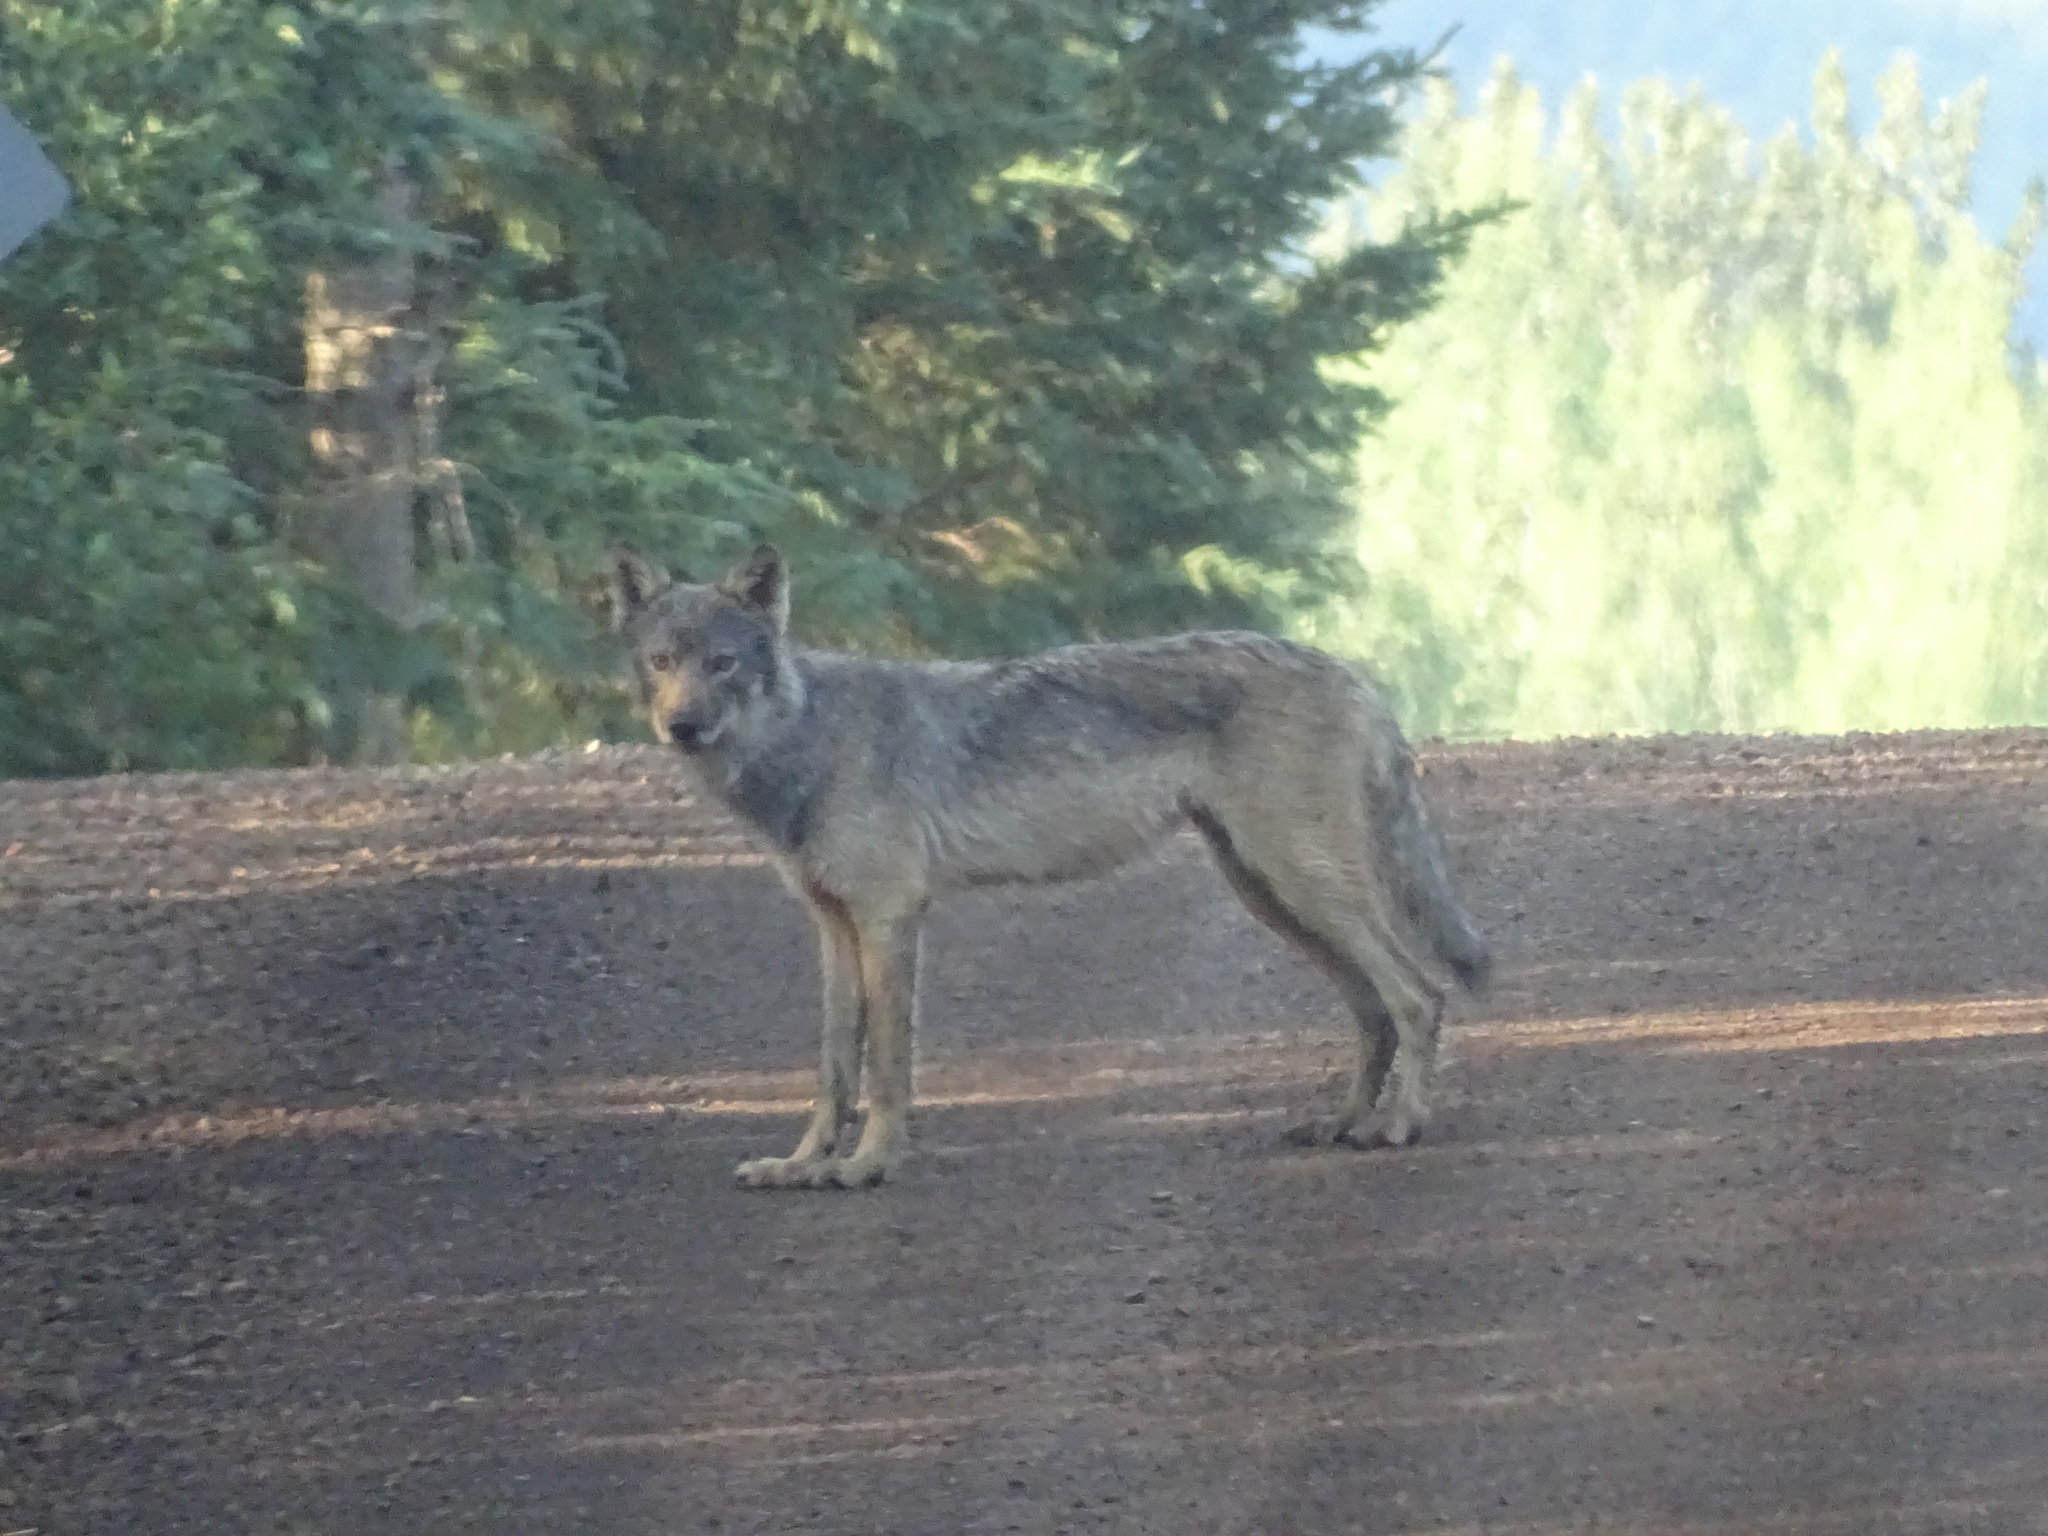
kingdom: Animalia
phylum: Chordata
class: Mammalia
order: Carnivora
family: Canidae
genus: Canis
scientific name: Canis latrans
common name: Coyote
